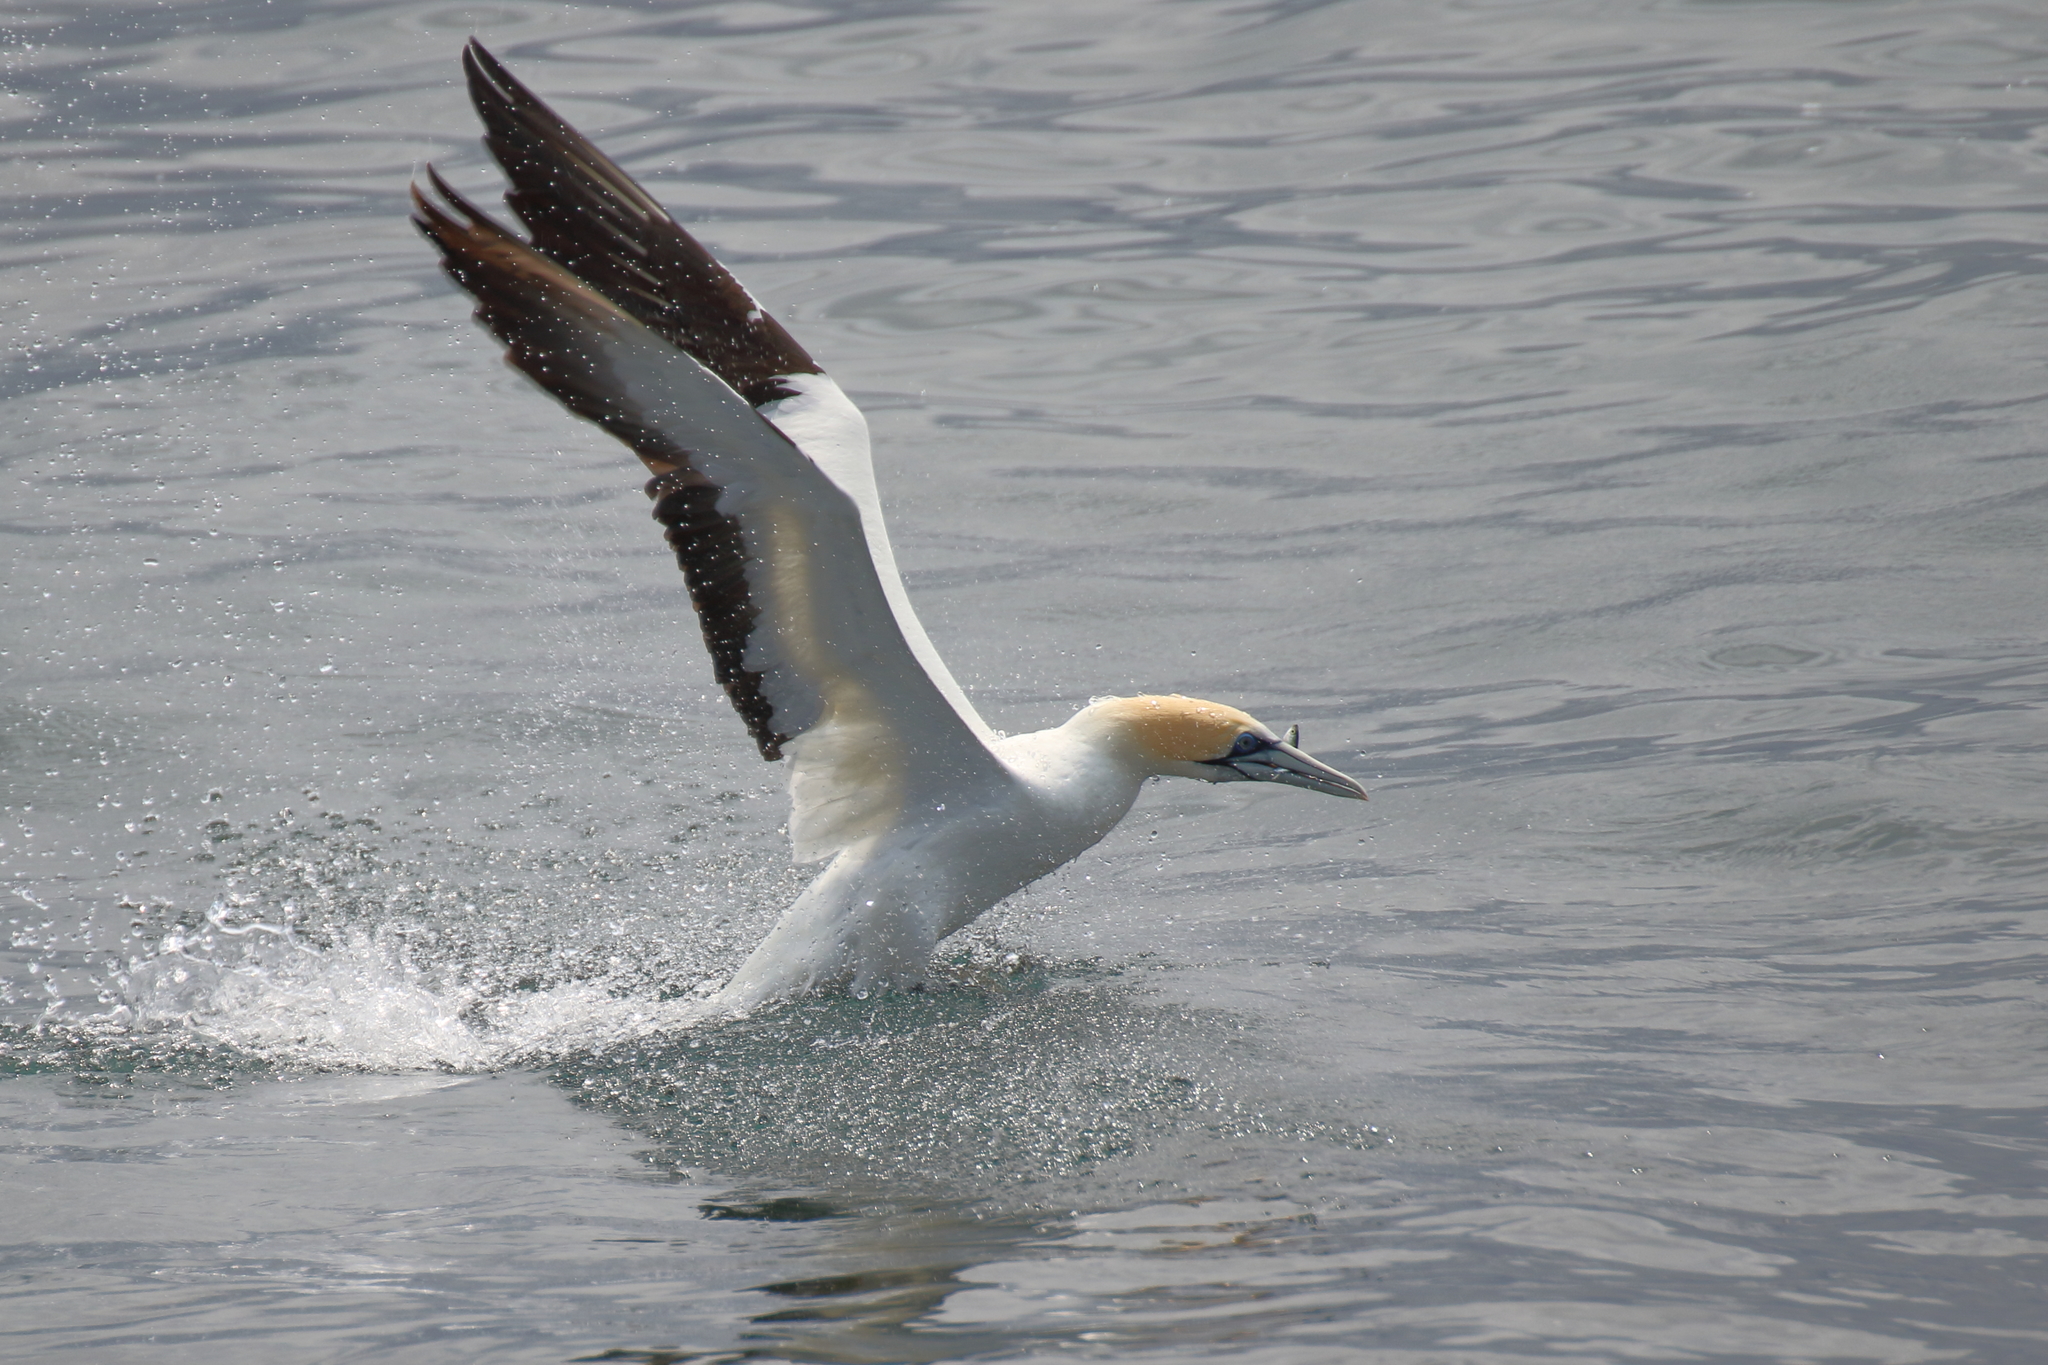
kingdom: Animalia
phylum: Chordata
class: Aves
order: Suliformes
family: Sulidae
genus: Morus
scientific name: Morus serrator
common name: Australasian gannet
